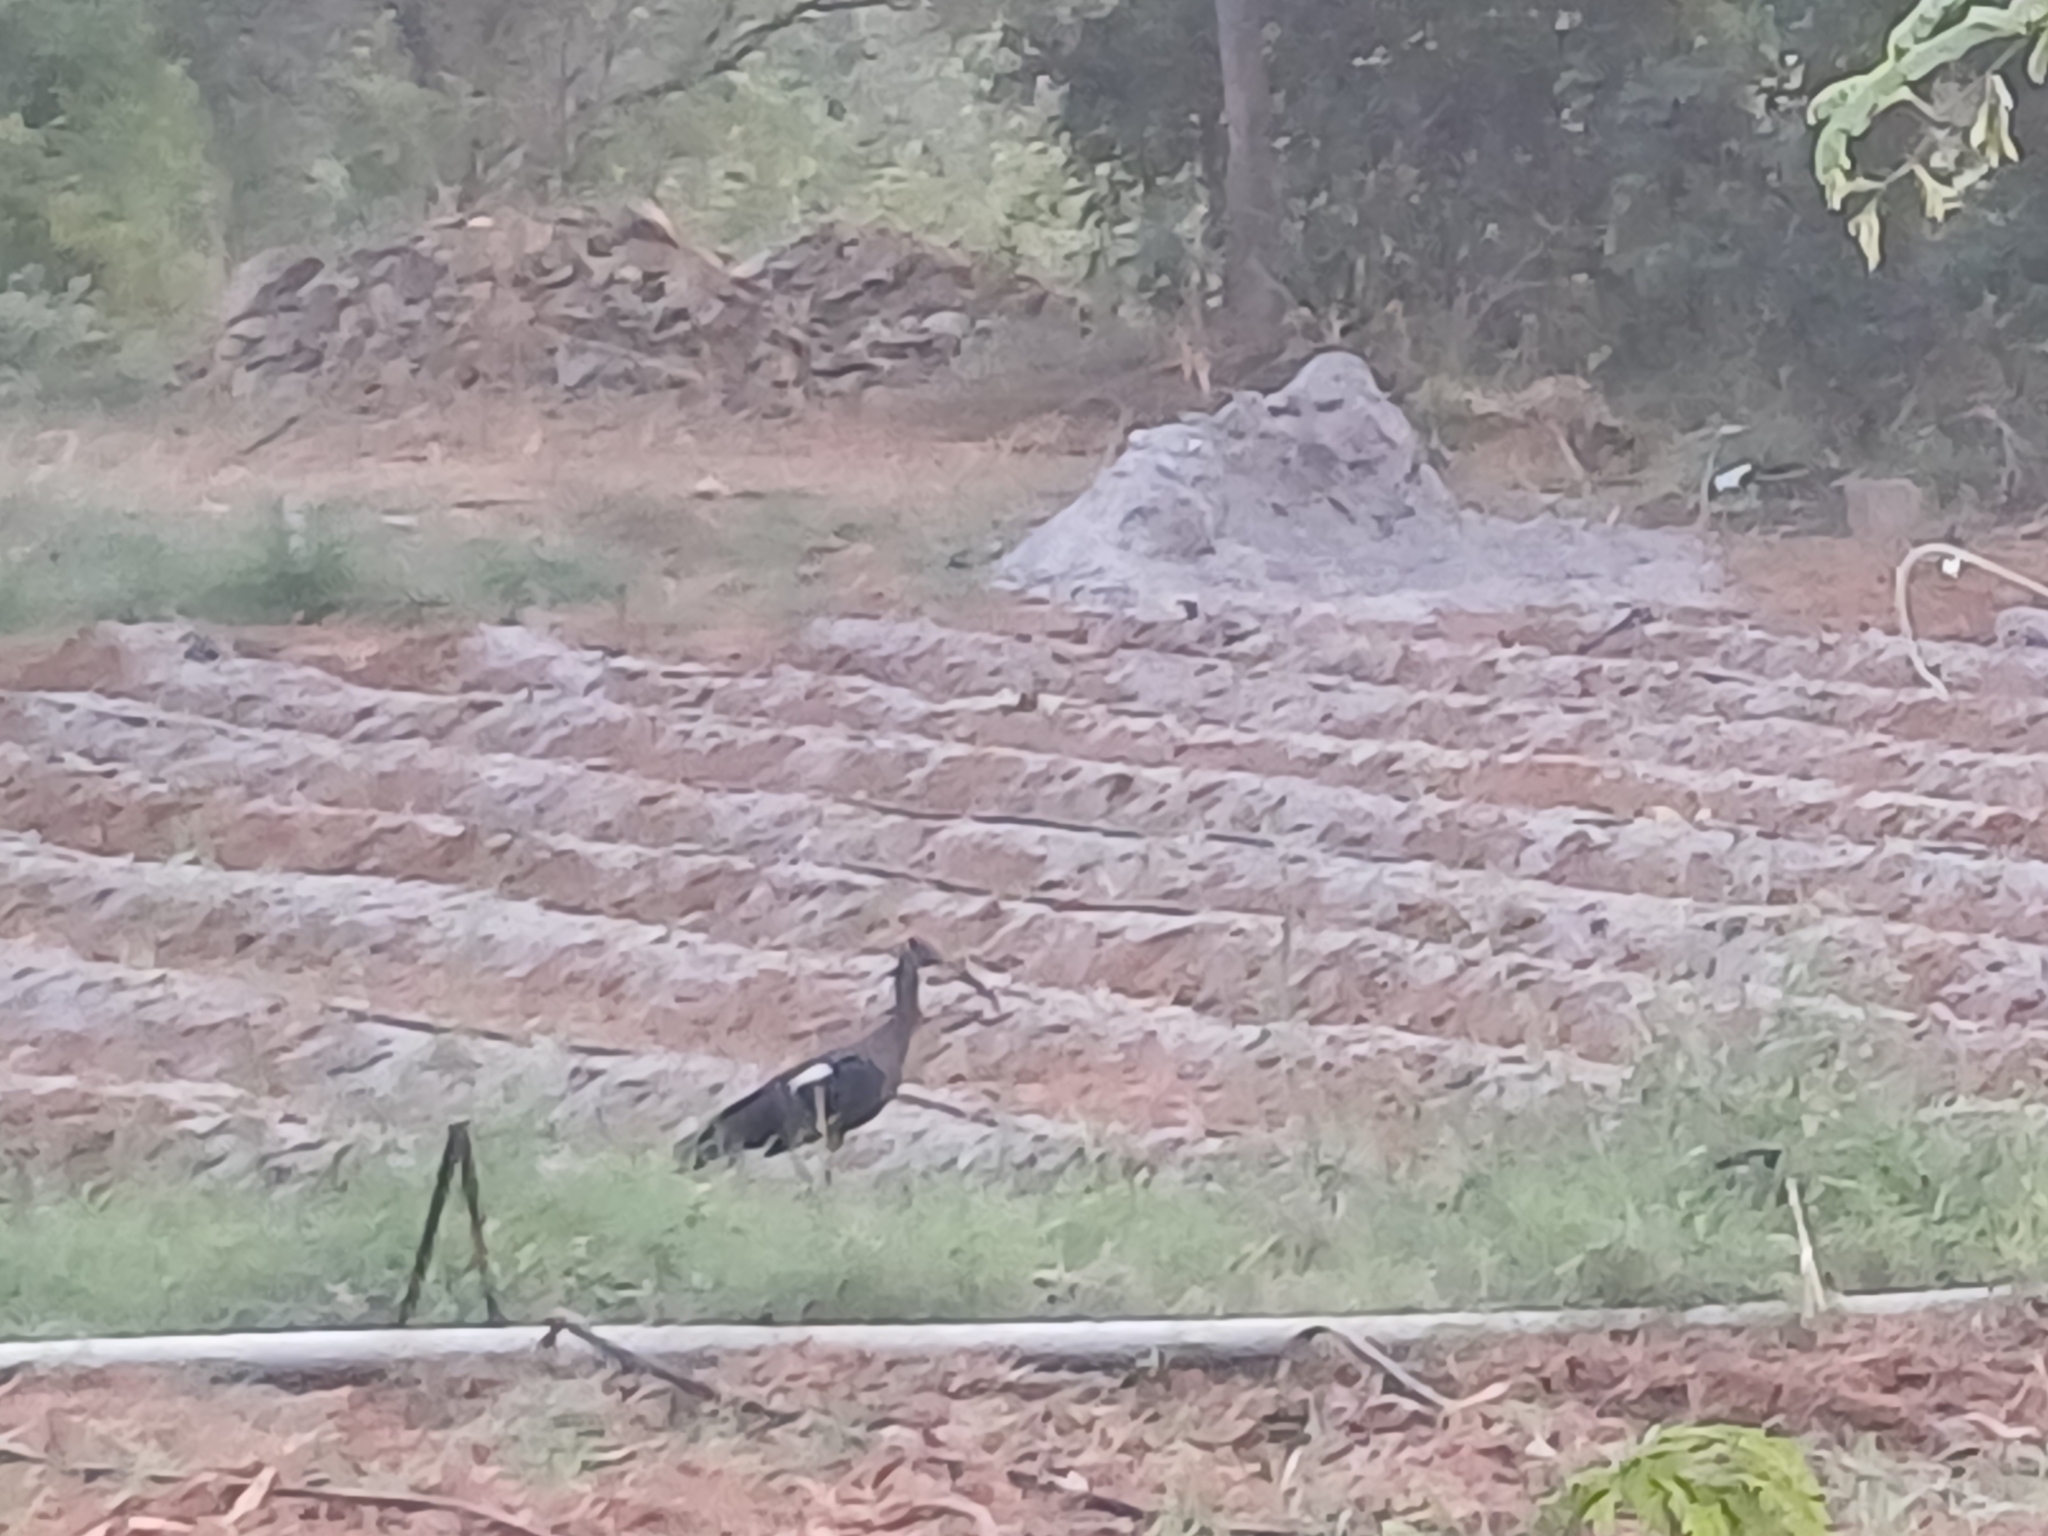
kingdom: Animalia
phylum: Chordata
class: Aves
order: Pelecaniformes
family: Threskiornithidae
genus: Pseudibis
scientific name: Pseudibis papillosa
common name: Red-naped ibis
